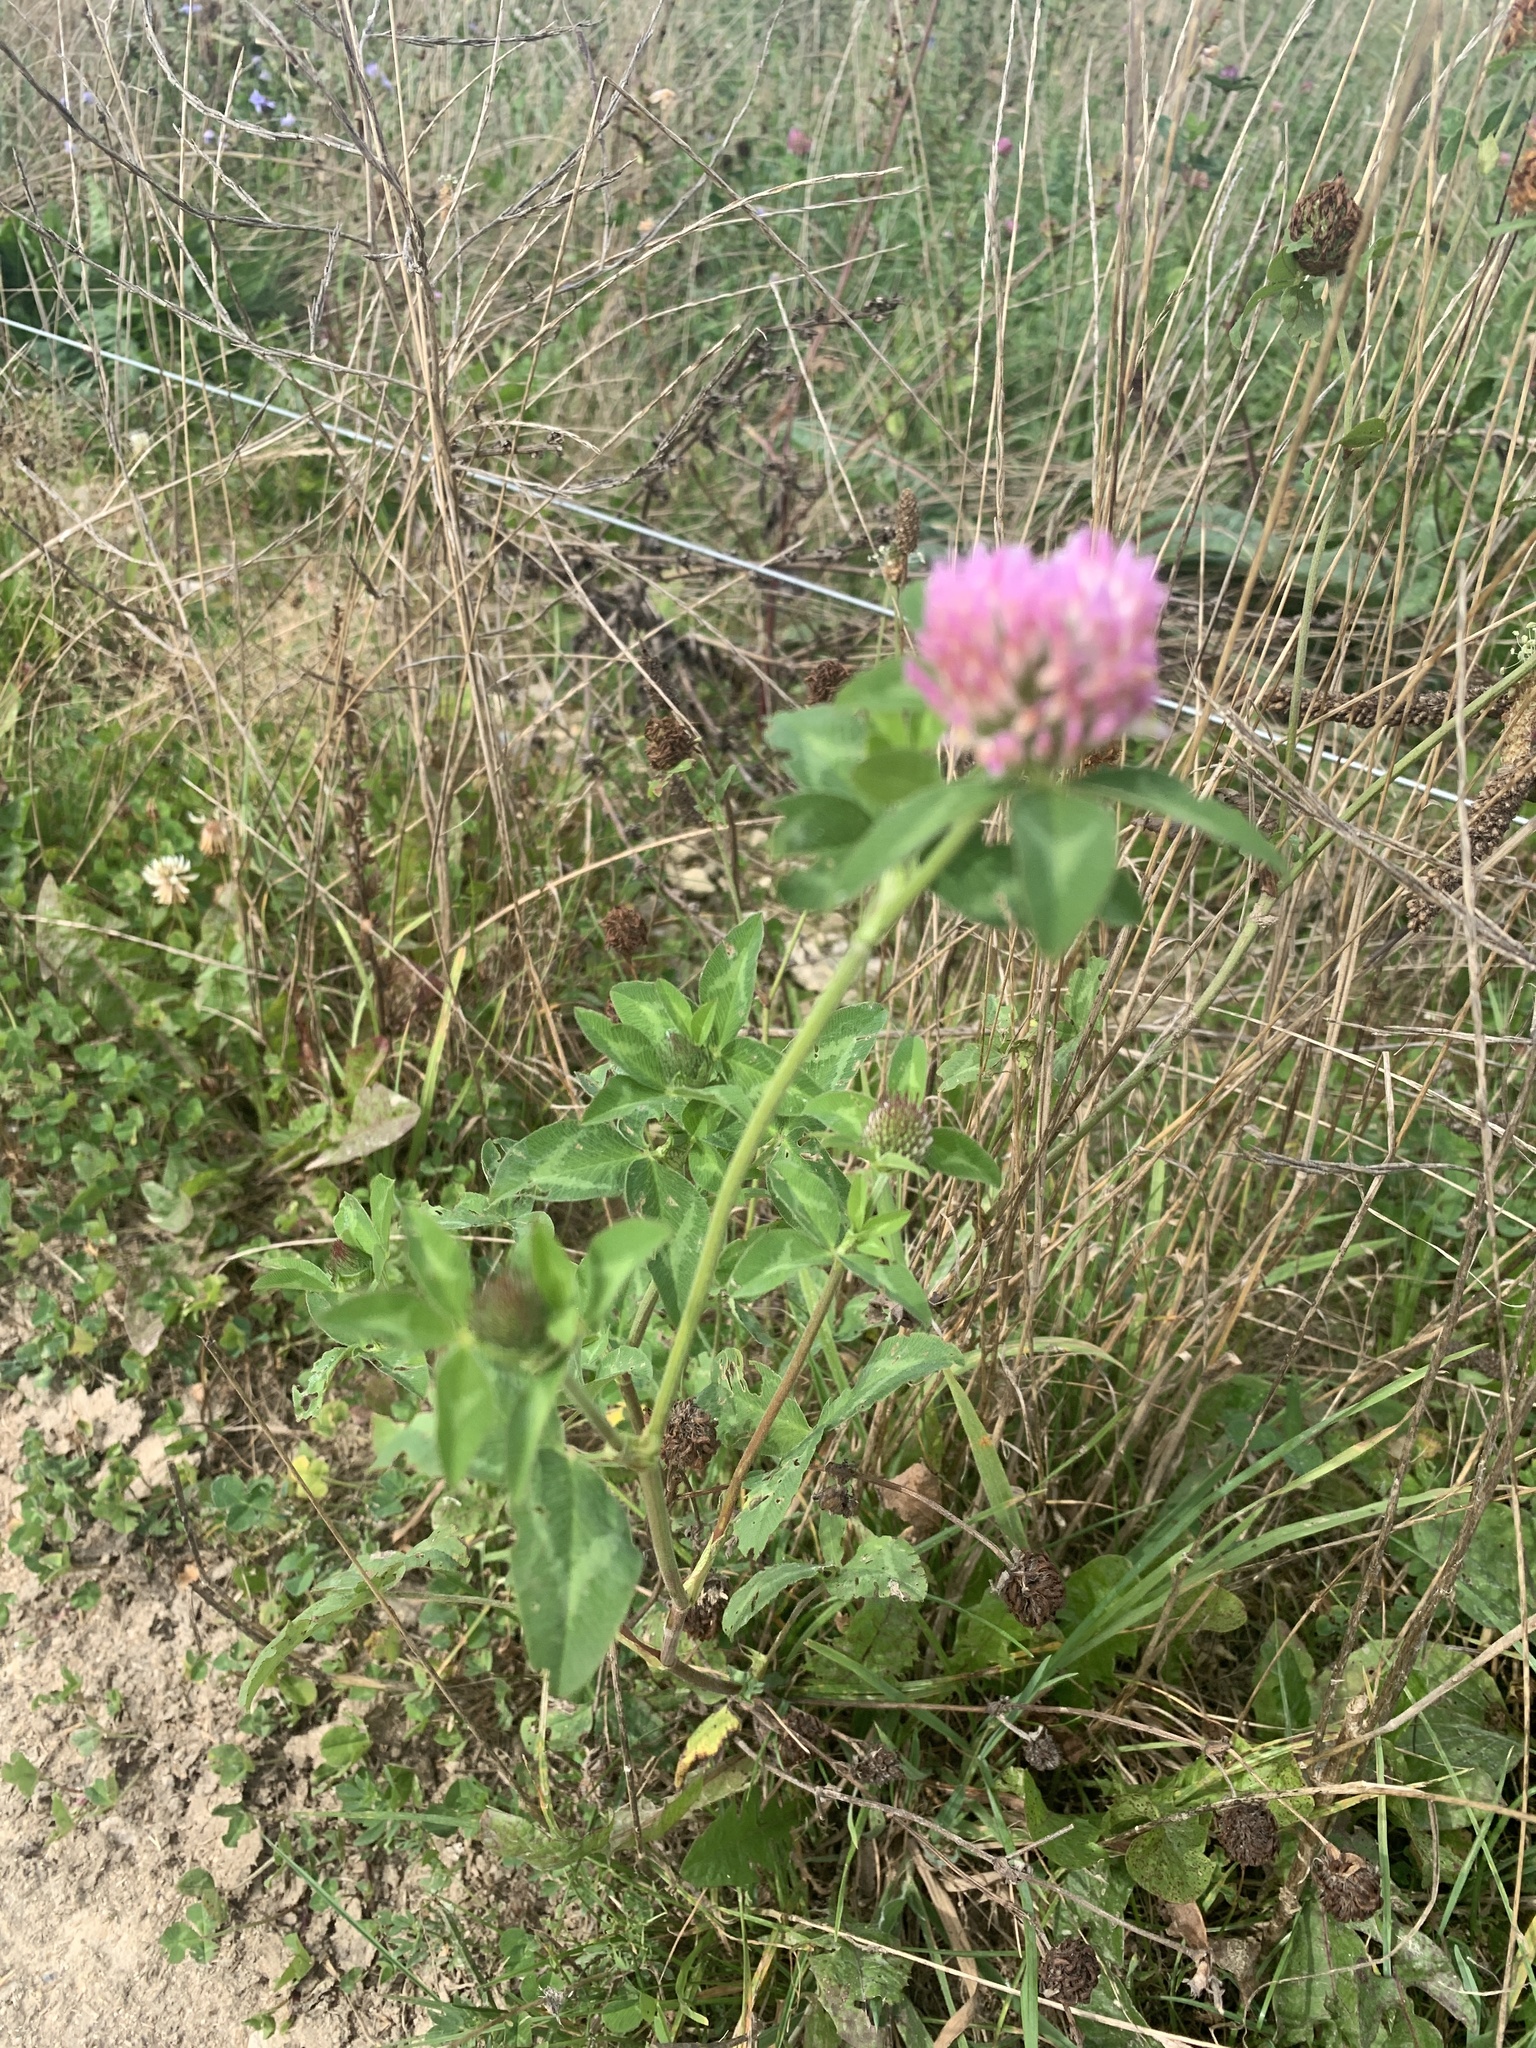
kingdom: Plantae
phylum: Tracheophyta
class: Magnoliopsida
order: Fabales
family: Fabaceae
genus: Trifolium
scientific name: Trifolium pratense
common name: Red clover
